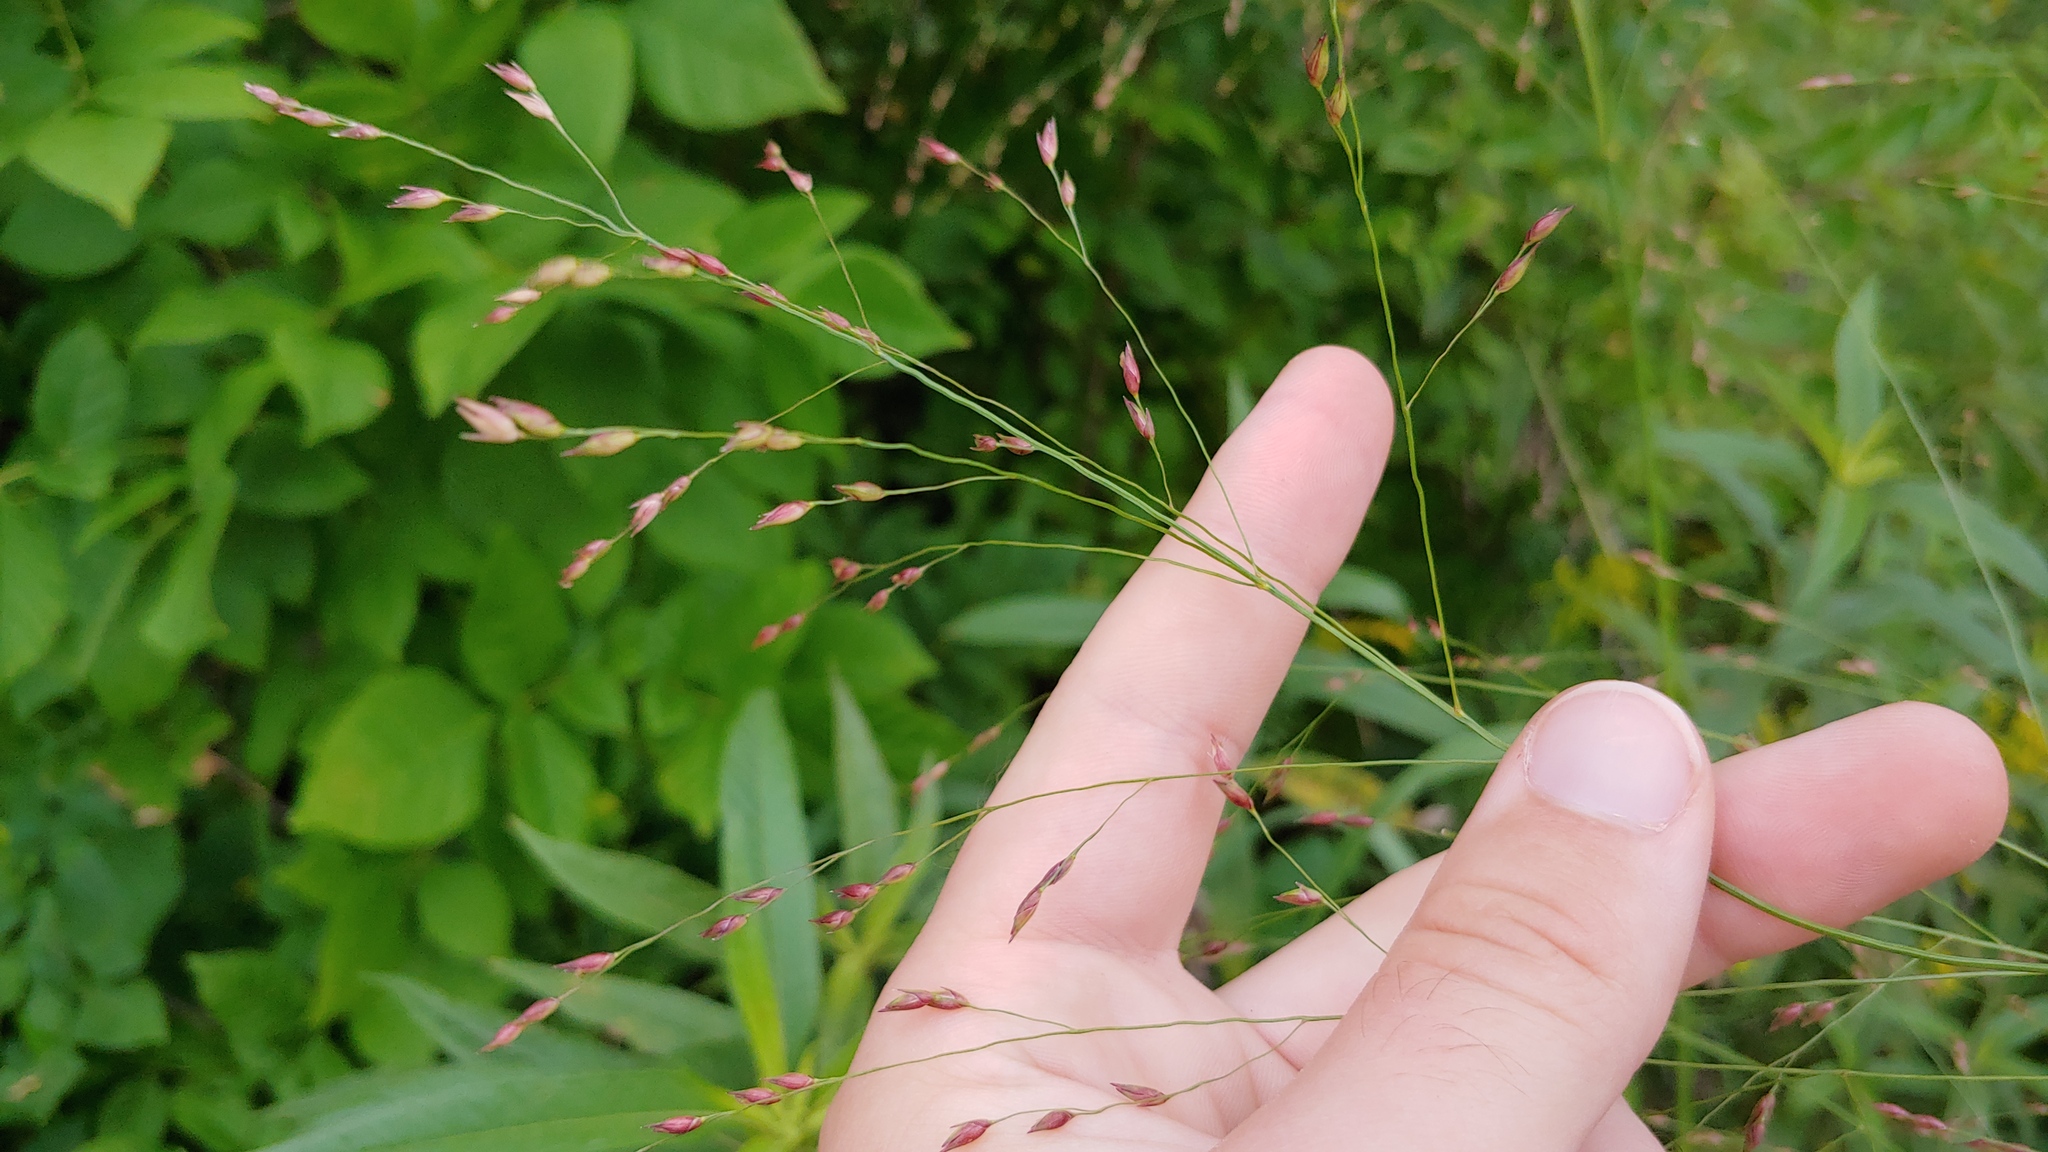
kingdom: Plantae
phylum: Tracheophyta
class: Liliopsida
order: Poales
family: Poaceae
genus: Panicum
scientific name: Panicum virgatum
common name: Switchgrass
